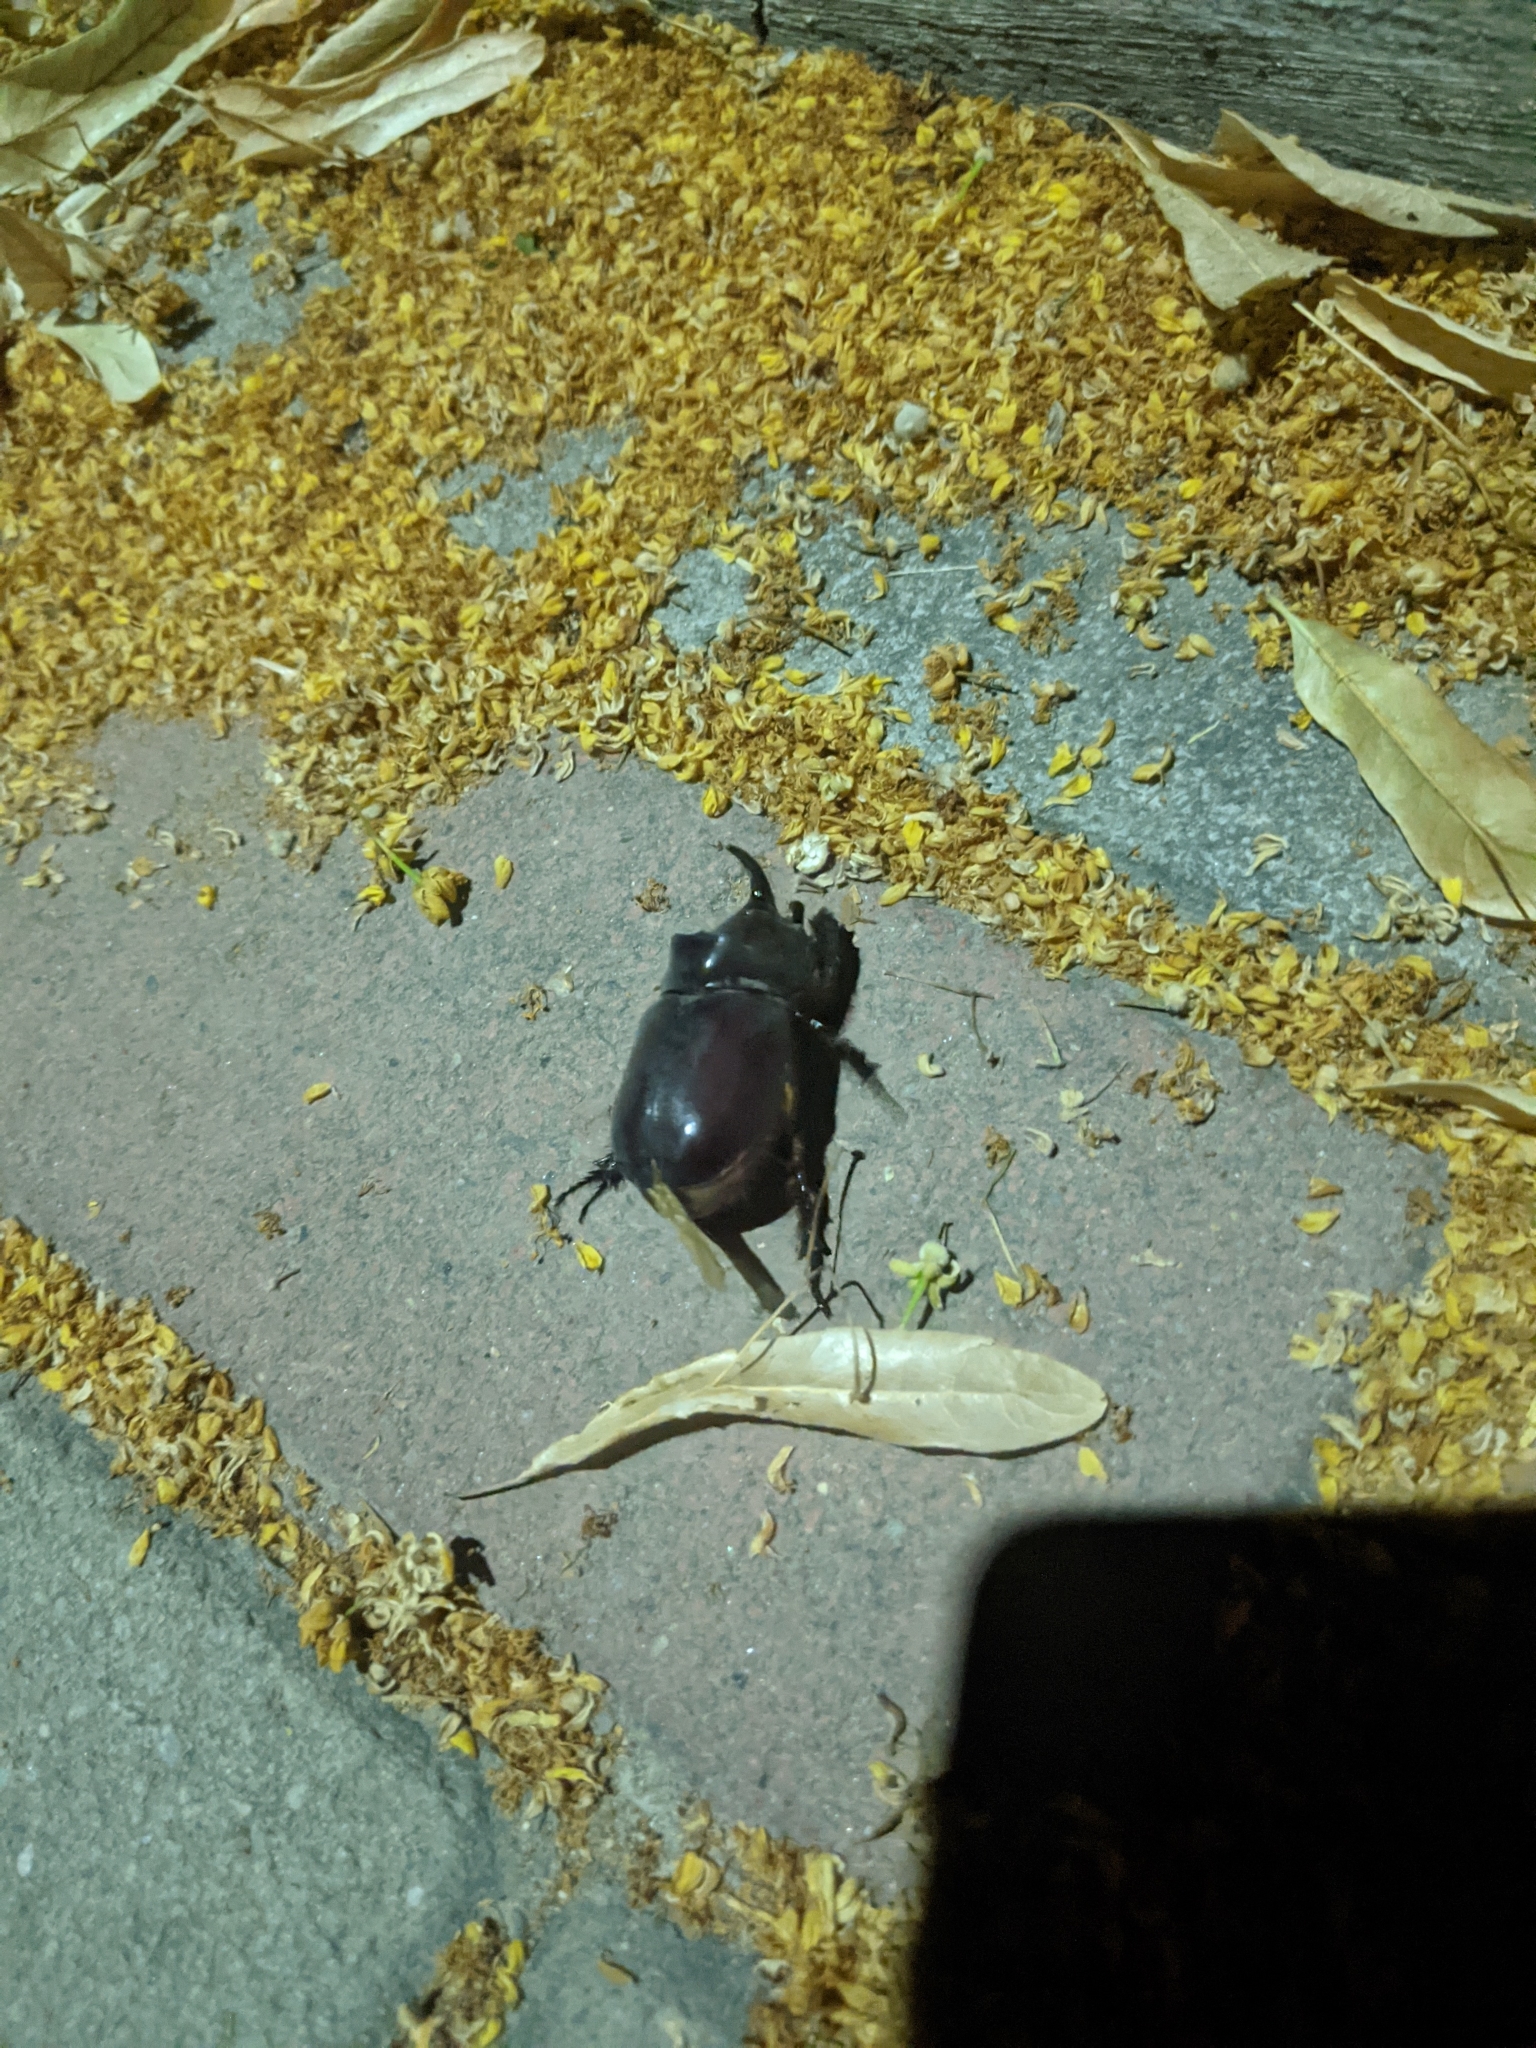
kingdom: Animalia
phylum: Arthropoda
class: Insecta
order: Coleoptera
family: Scarabaeidae
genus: Oryctes
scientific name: Oryctes nasicornis
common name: European rhinoceros beetle
